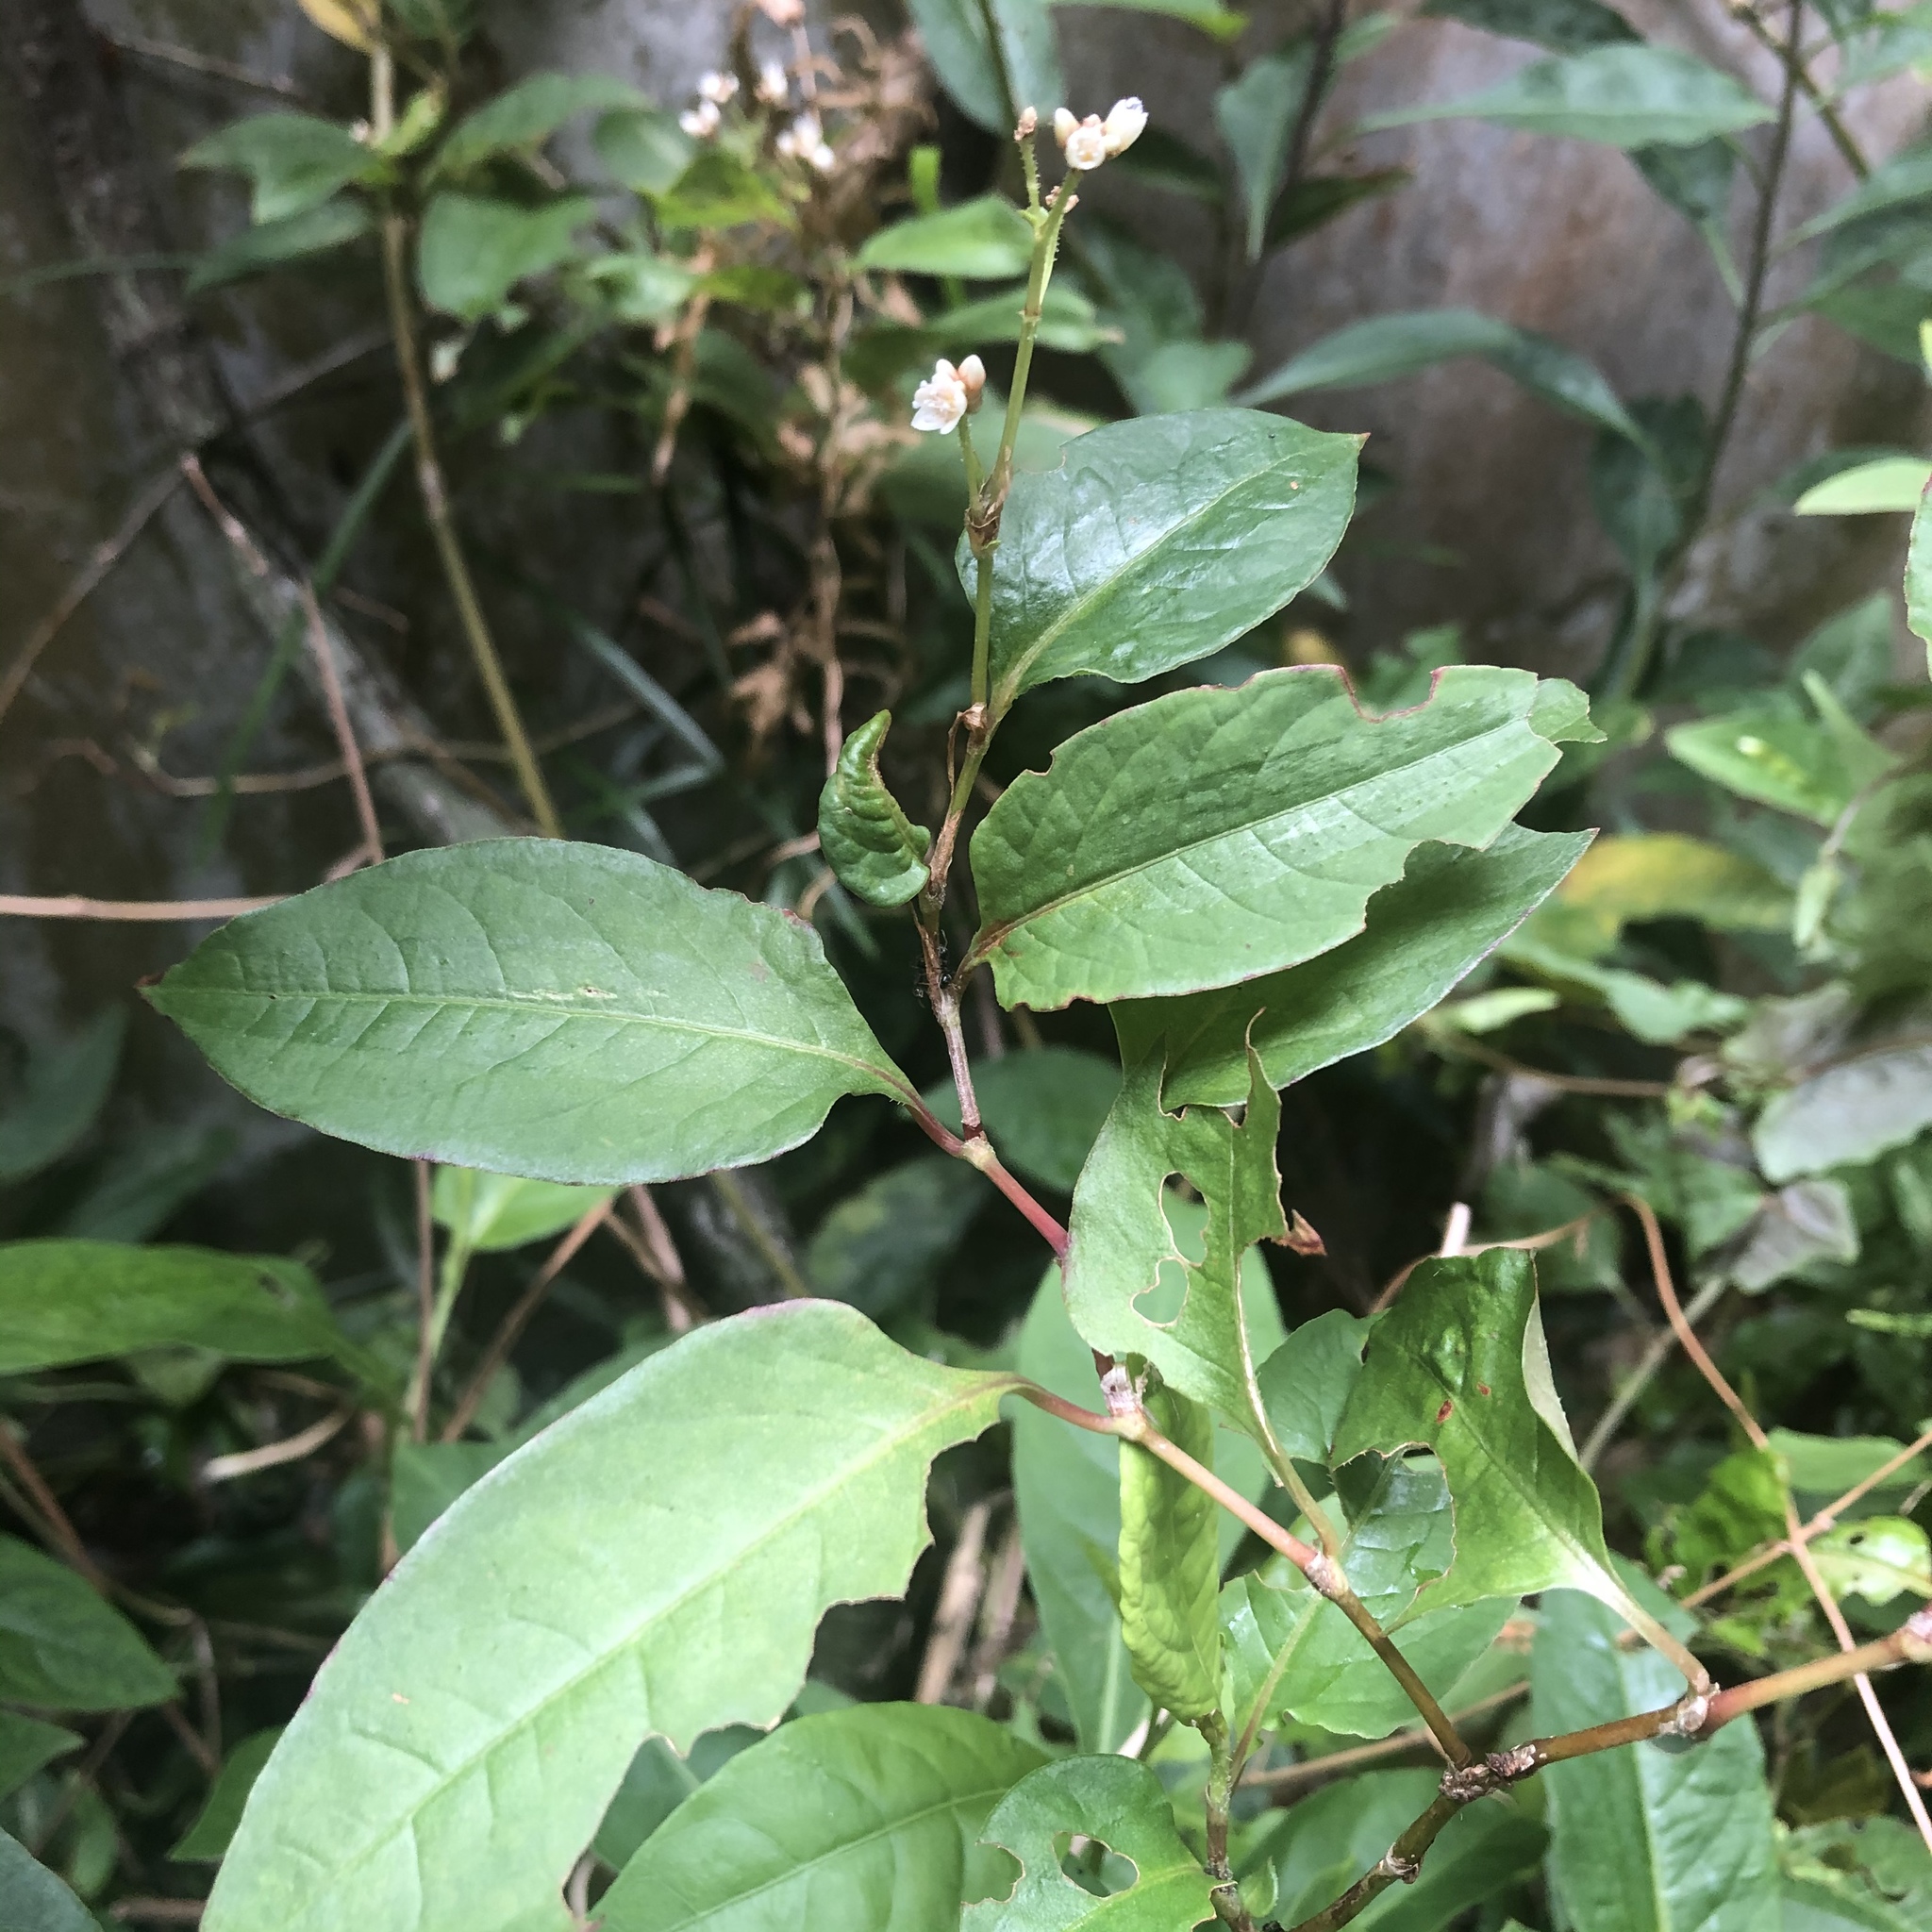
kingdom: Plantae
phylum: Tracheophyta
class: Magnoliopsida
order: Caryophyllales
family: Polygonaceae
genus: Persicaria
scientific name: Persicaria chinensis
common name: Chinese knotweed
